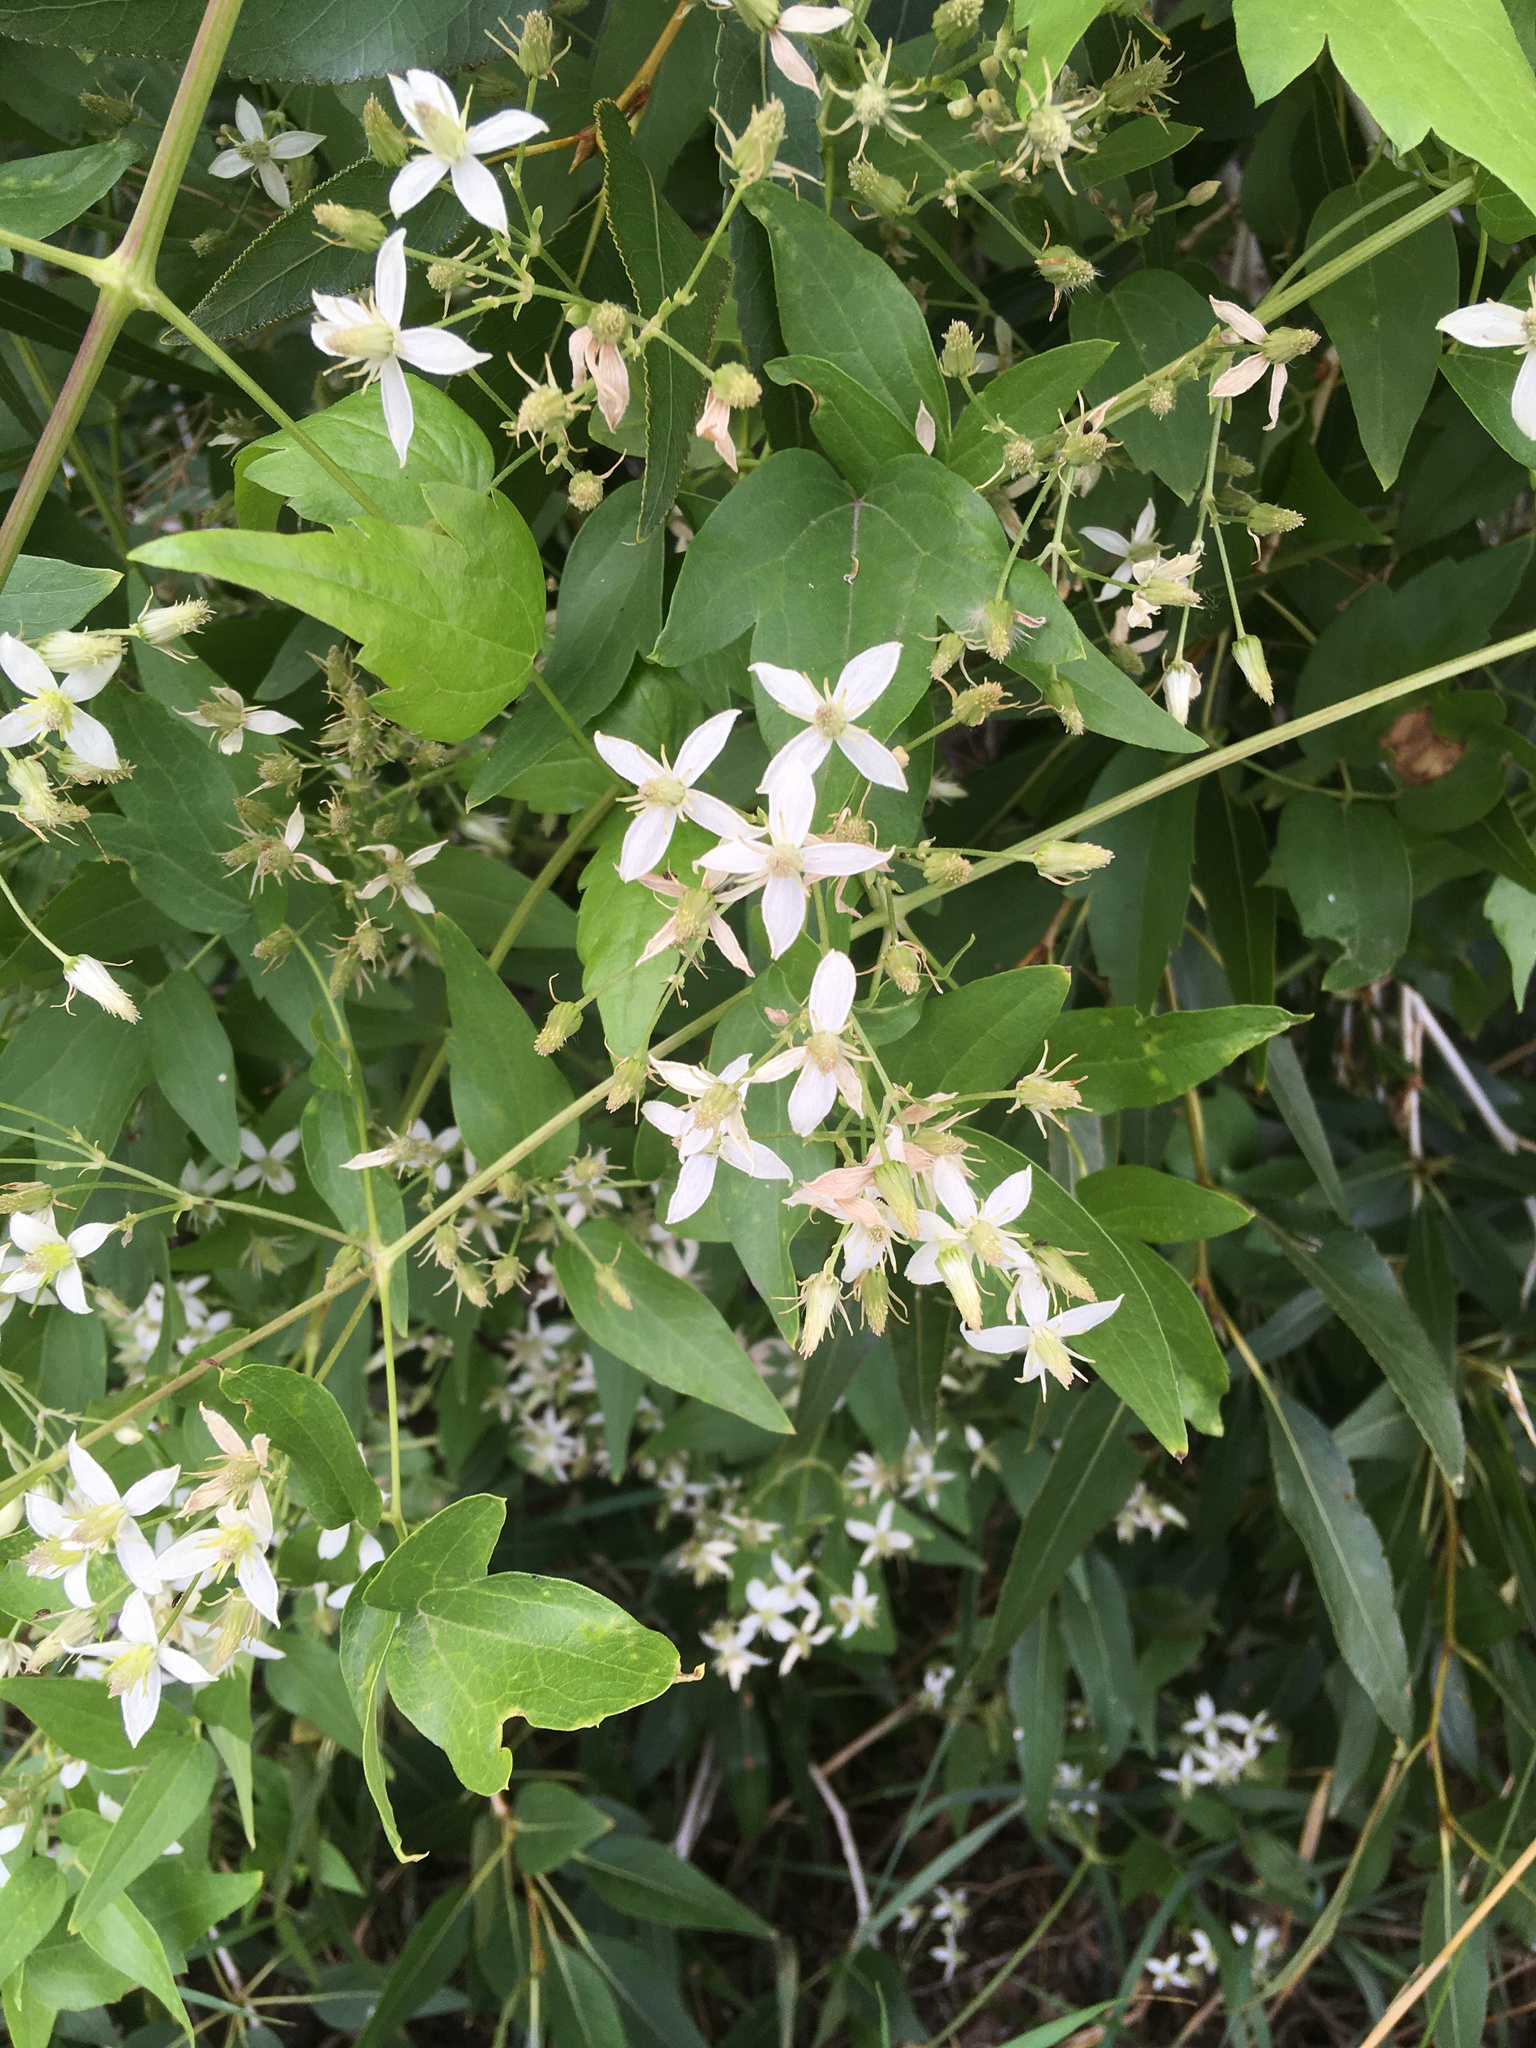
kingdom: Plantae
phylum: Tracheophyta
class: Magnoliopsida
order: Ranunculales
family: Ranunculaceae
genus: Clematis
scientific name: Clematis ligusticifolia
